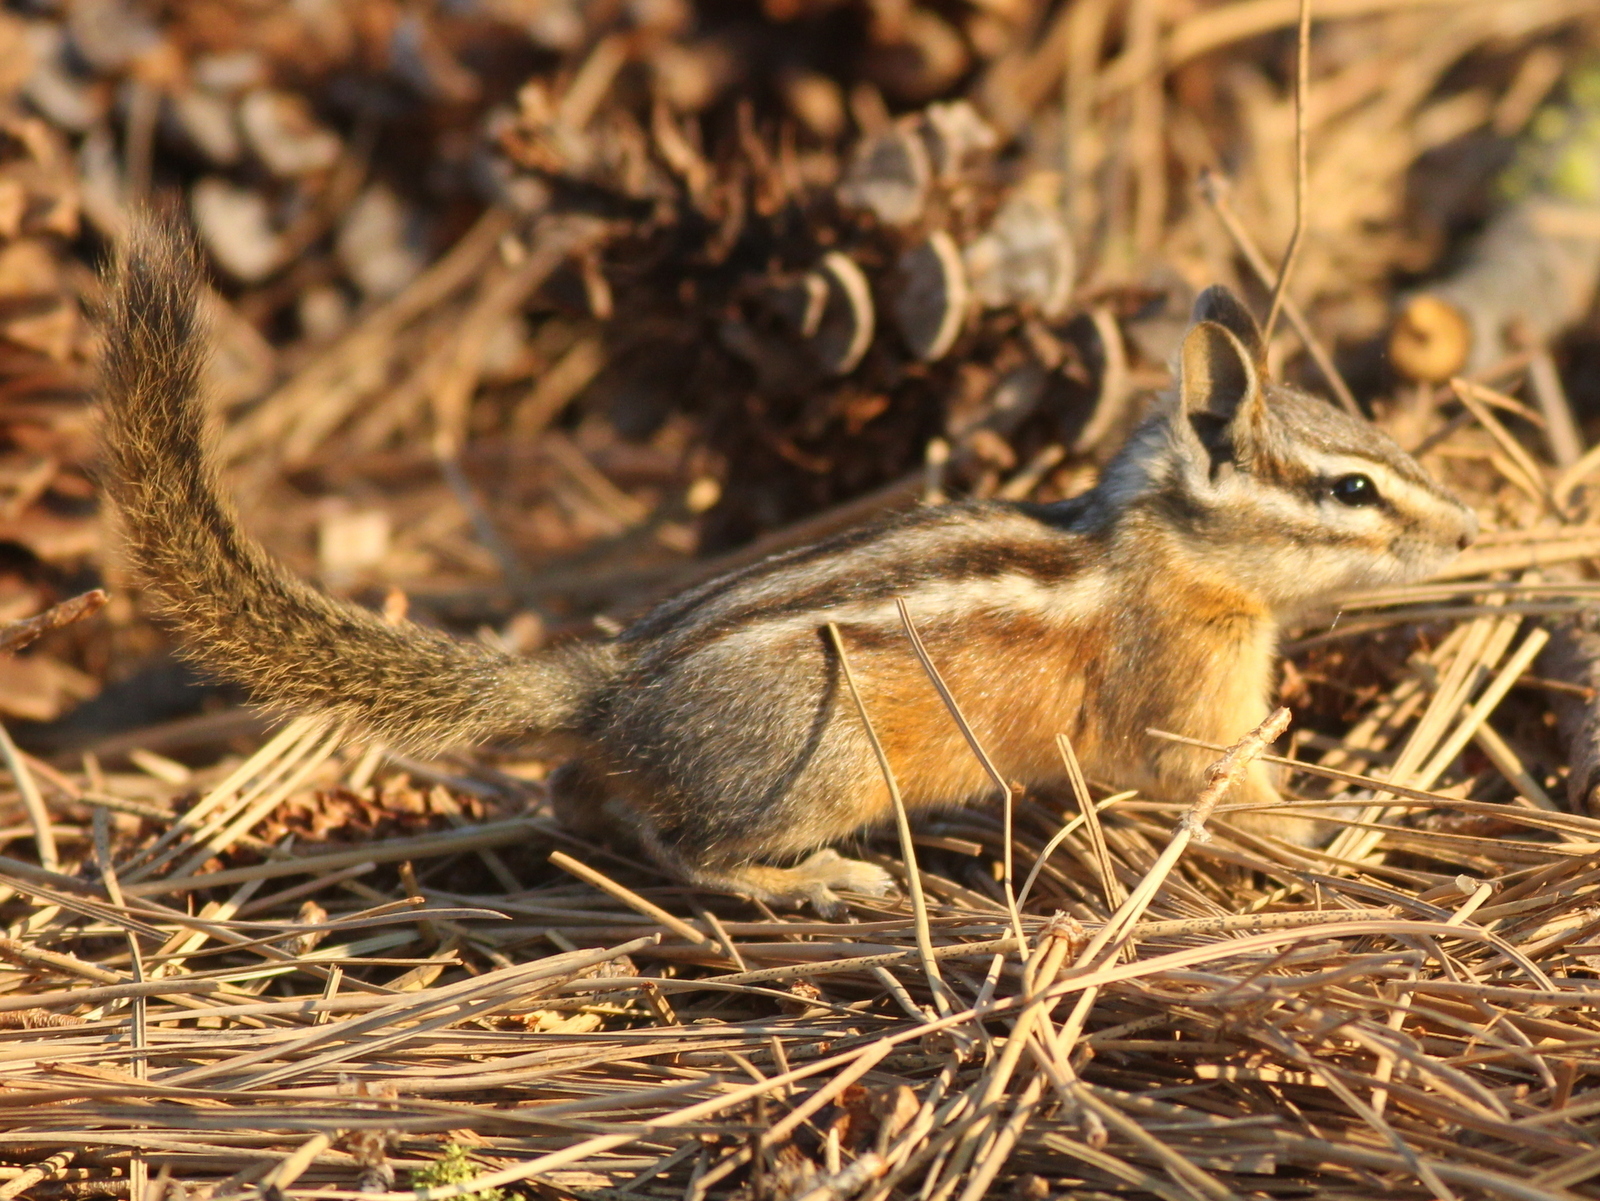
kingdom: Animalia
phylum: Chordata
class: Mammalia
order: Rodentia
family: Sciuridae
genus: Tamias
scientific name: Tamias amoenus
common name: Yellow-pine chipmunk
